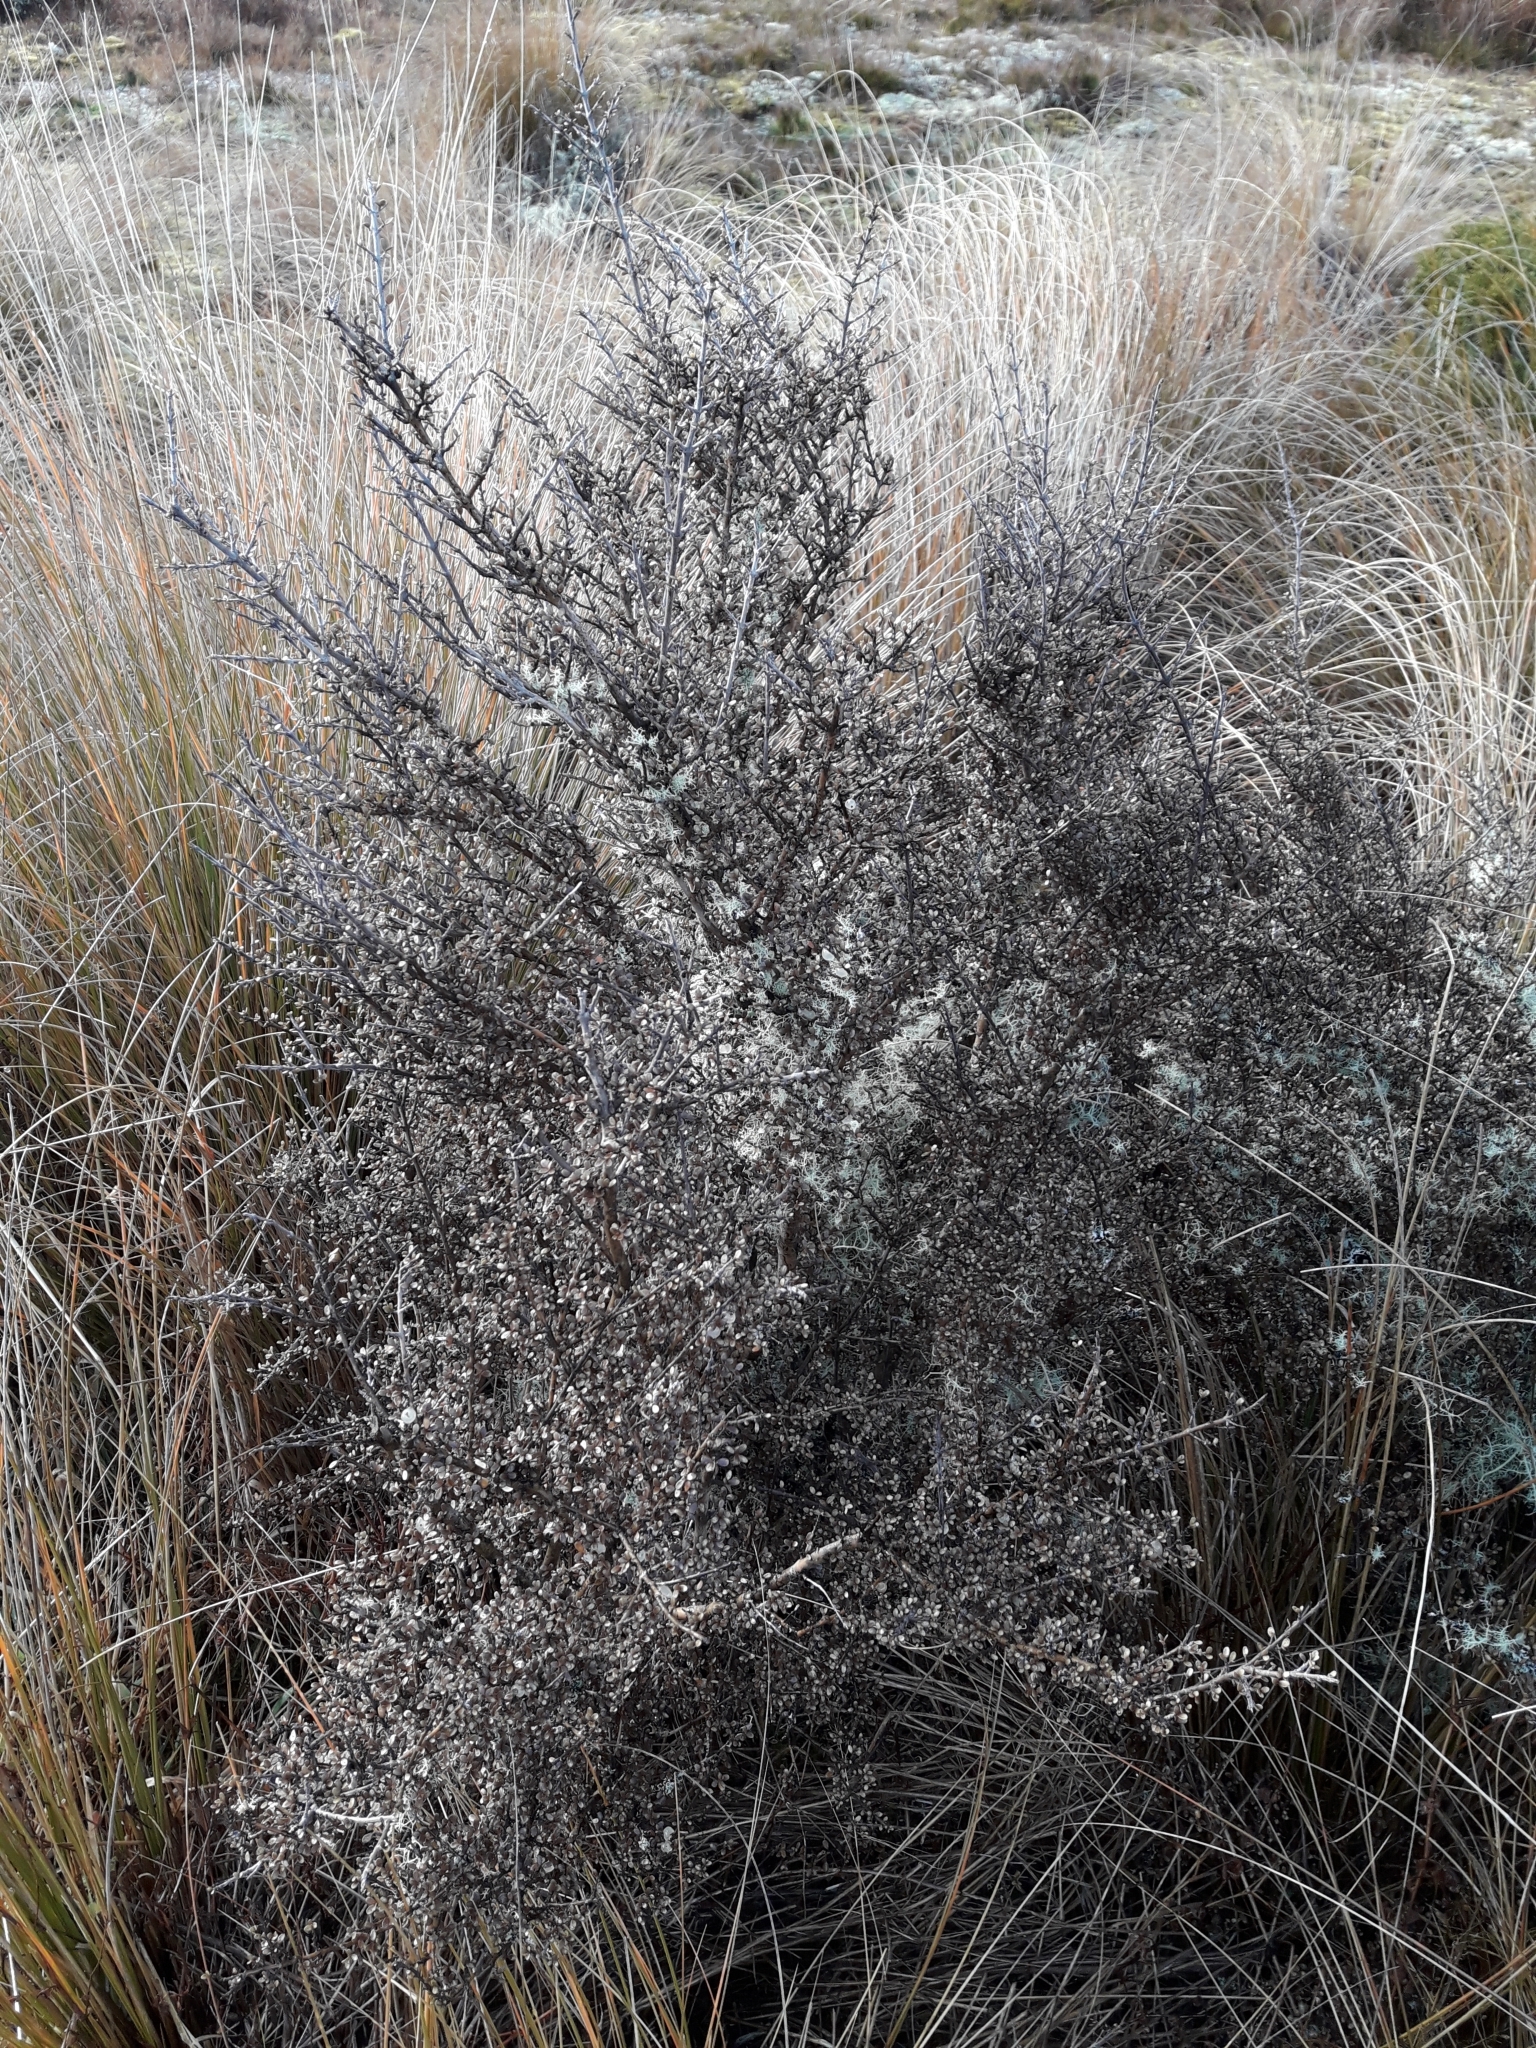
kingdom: Plantae
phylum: Tracheophyta
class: Magnoliopsida
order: Gentianales
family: Rubiaceae
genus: Coprosma
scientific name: Coprosma dumosa
